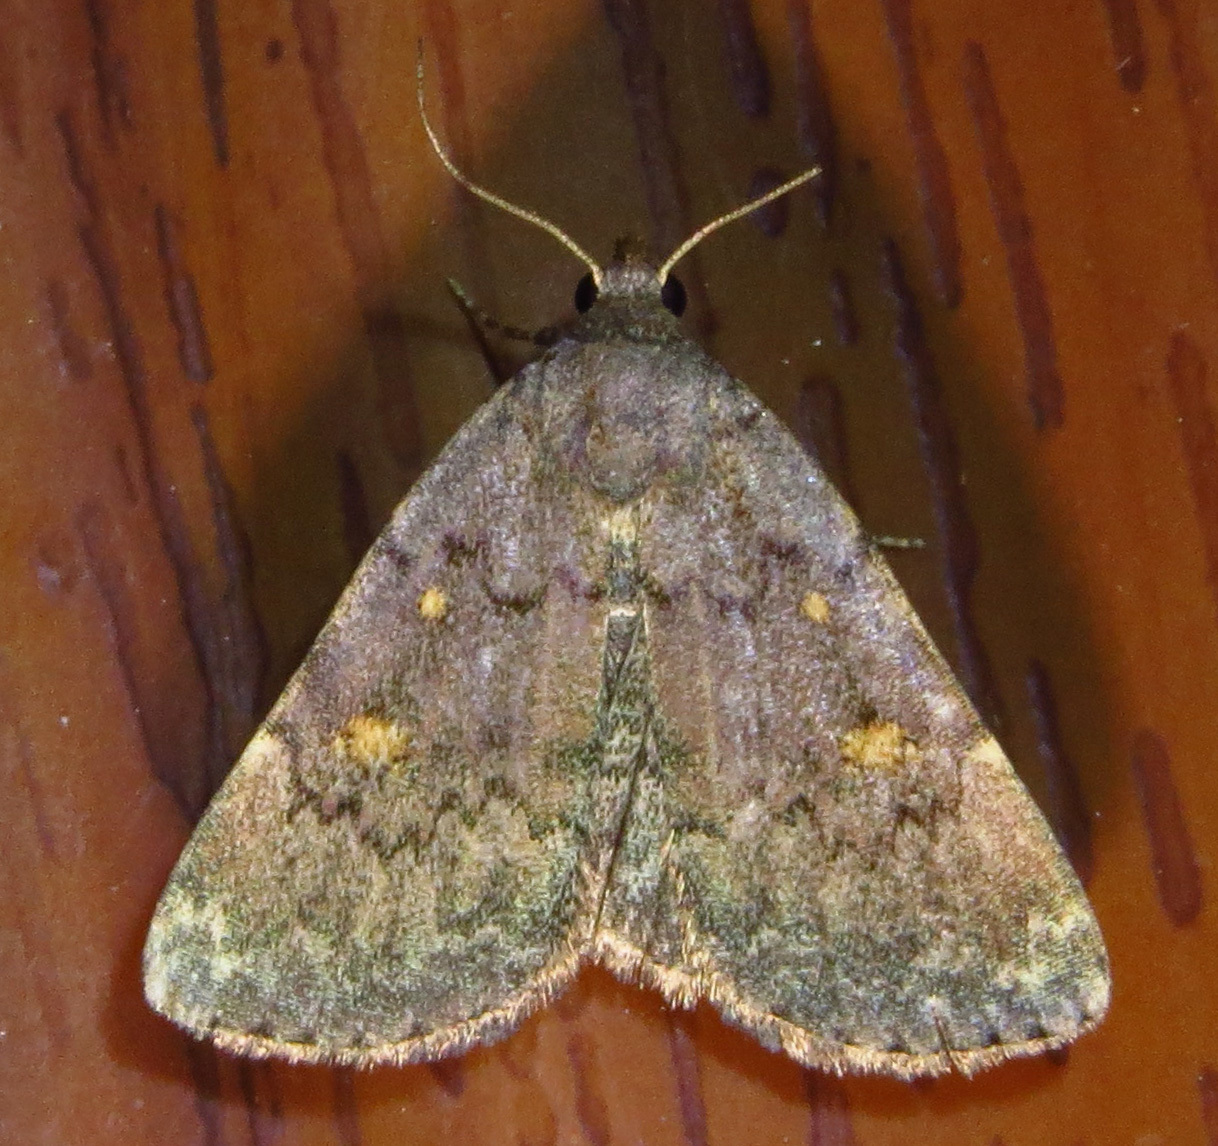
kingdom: Animalia
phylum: Arthropoda
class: Insecta
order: Lepidoptera
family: Erebidae
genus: Idia
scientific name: Idia aemula
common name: Common idia moth
